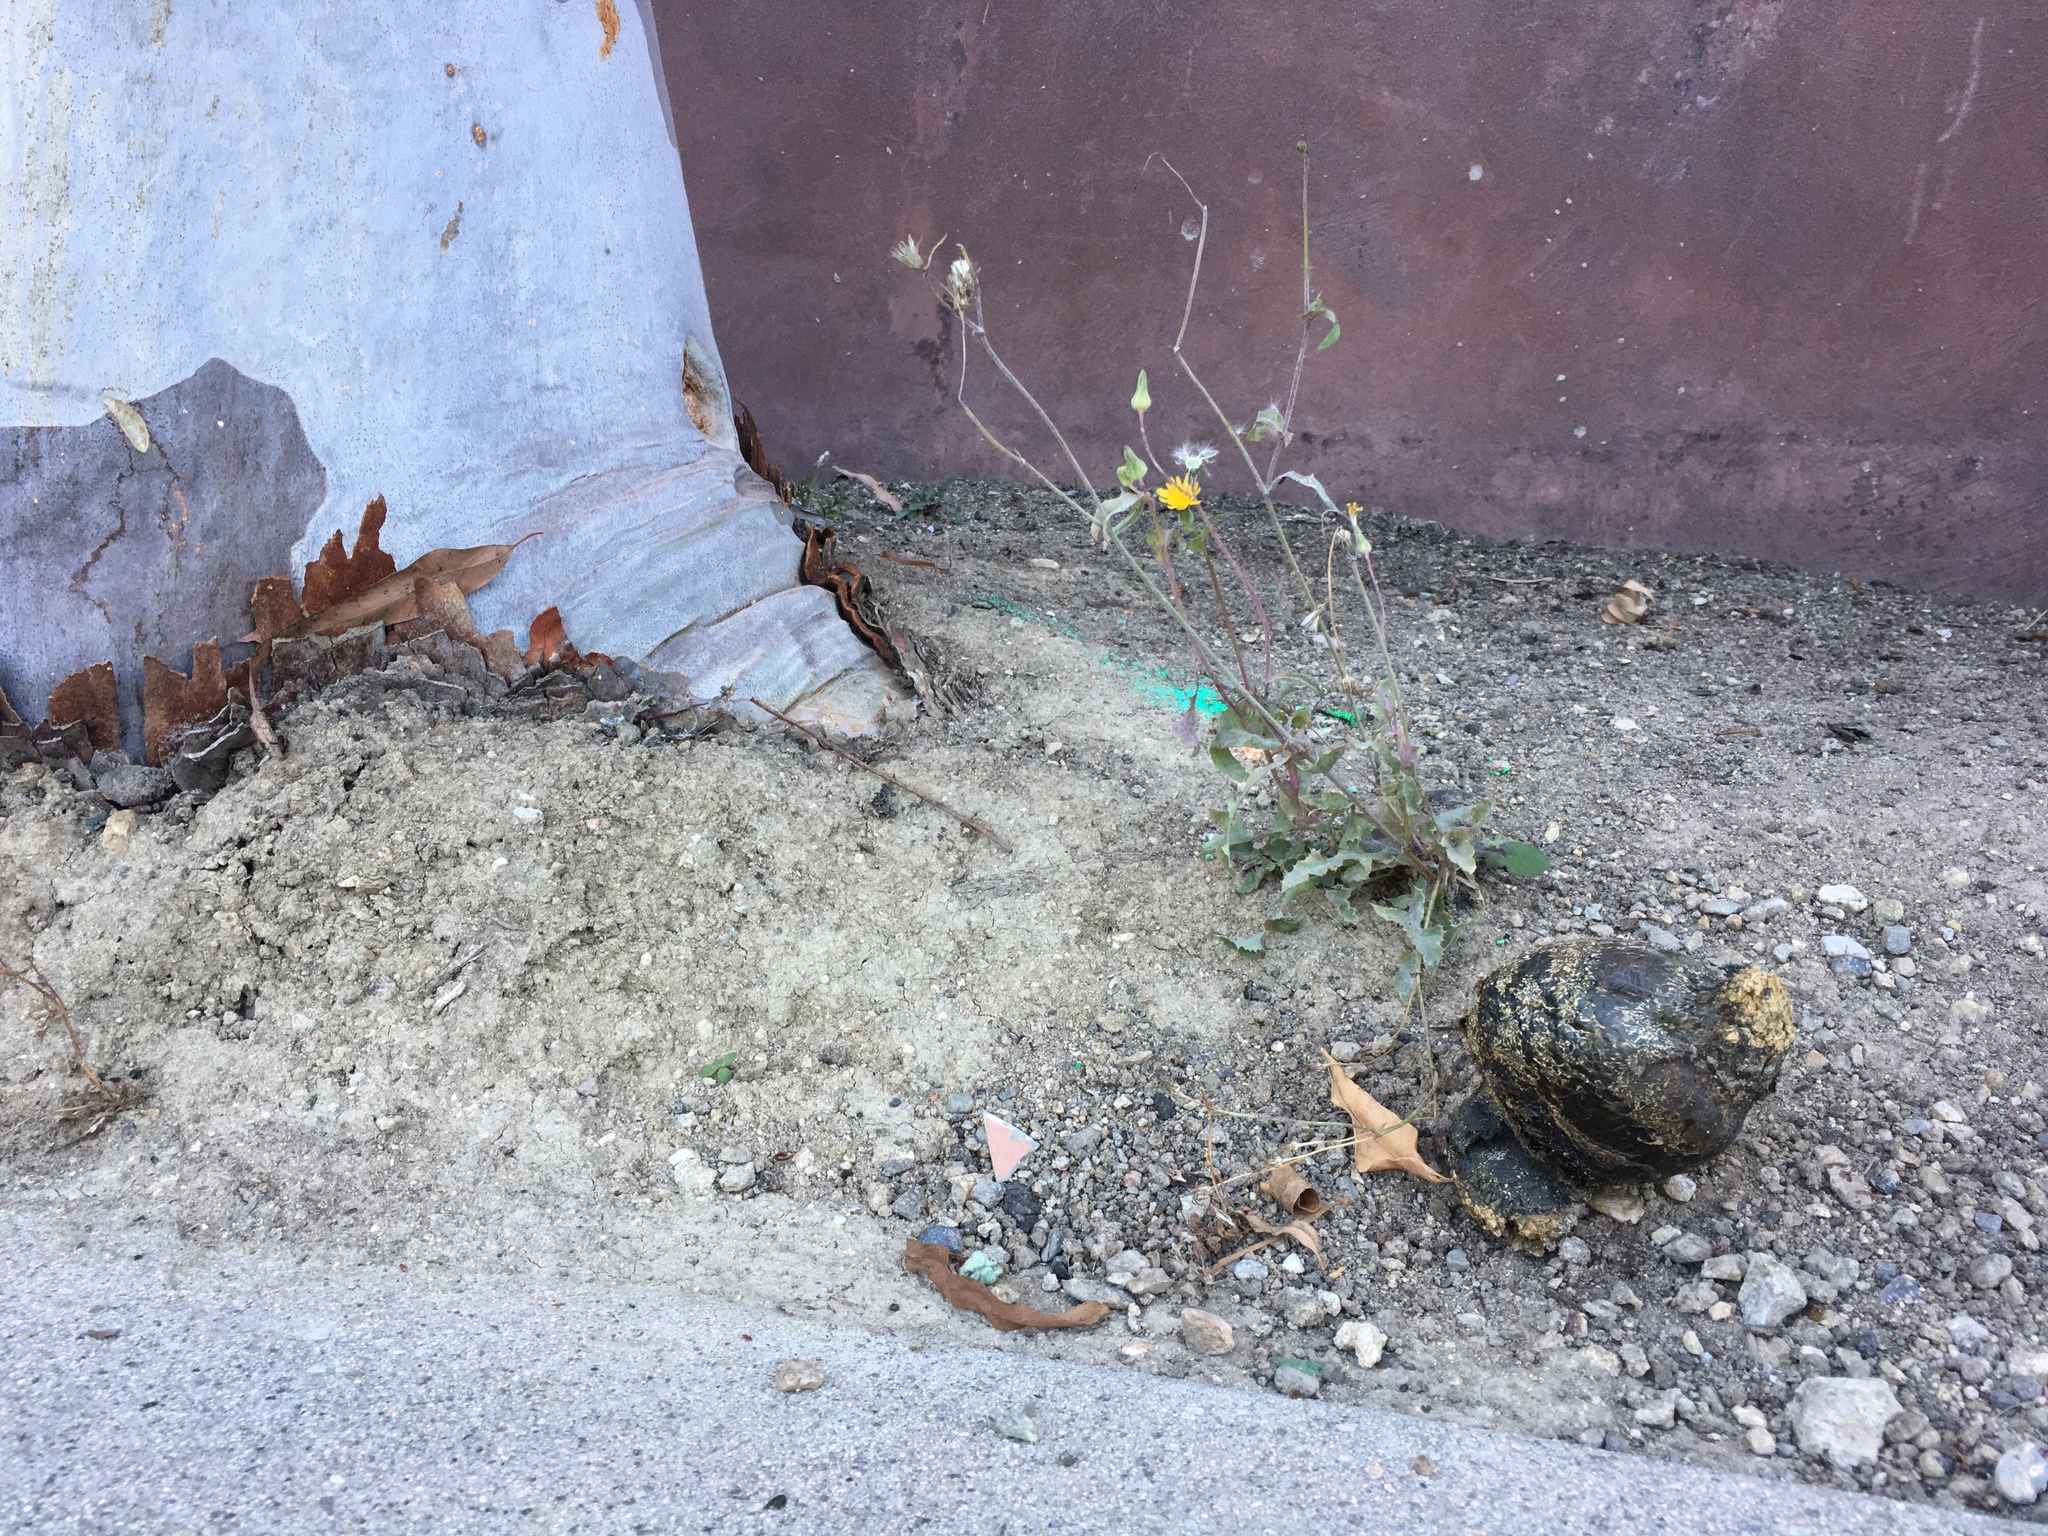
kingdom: Fungi
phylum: Basidiomycota
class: Agaricomycetes
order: Boletales
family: Sclerodermataceae
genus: Pisolithus
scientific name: Pisolithus arhizus
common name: Dyeball
